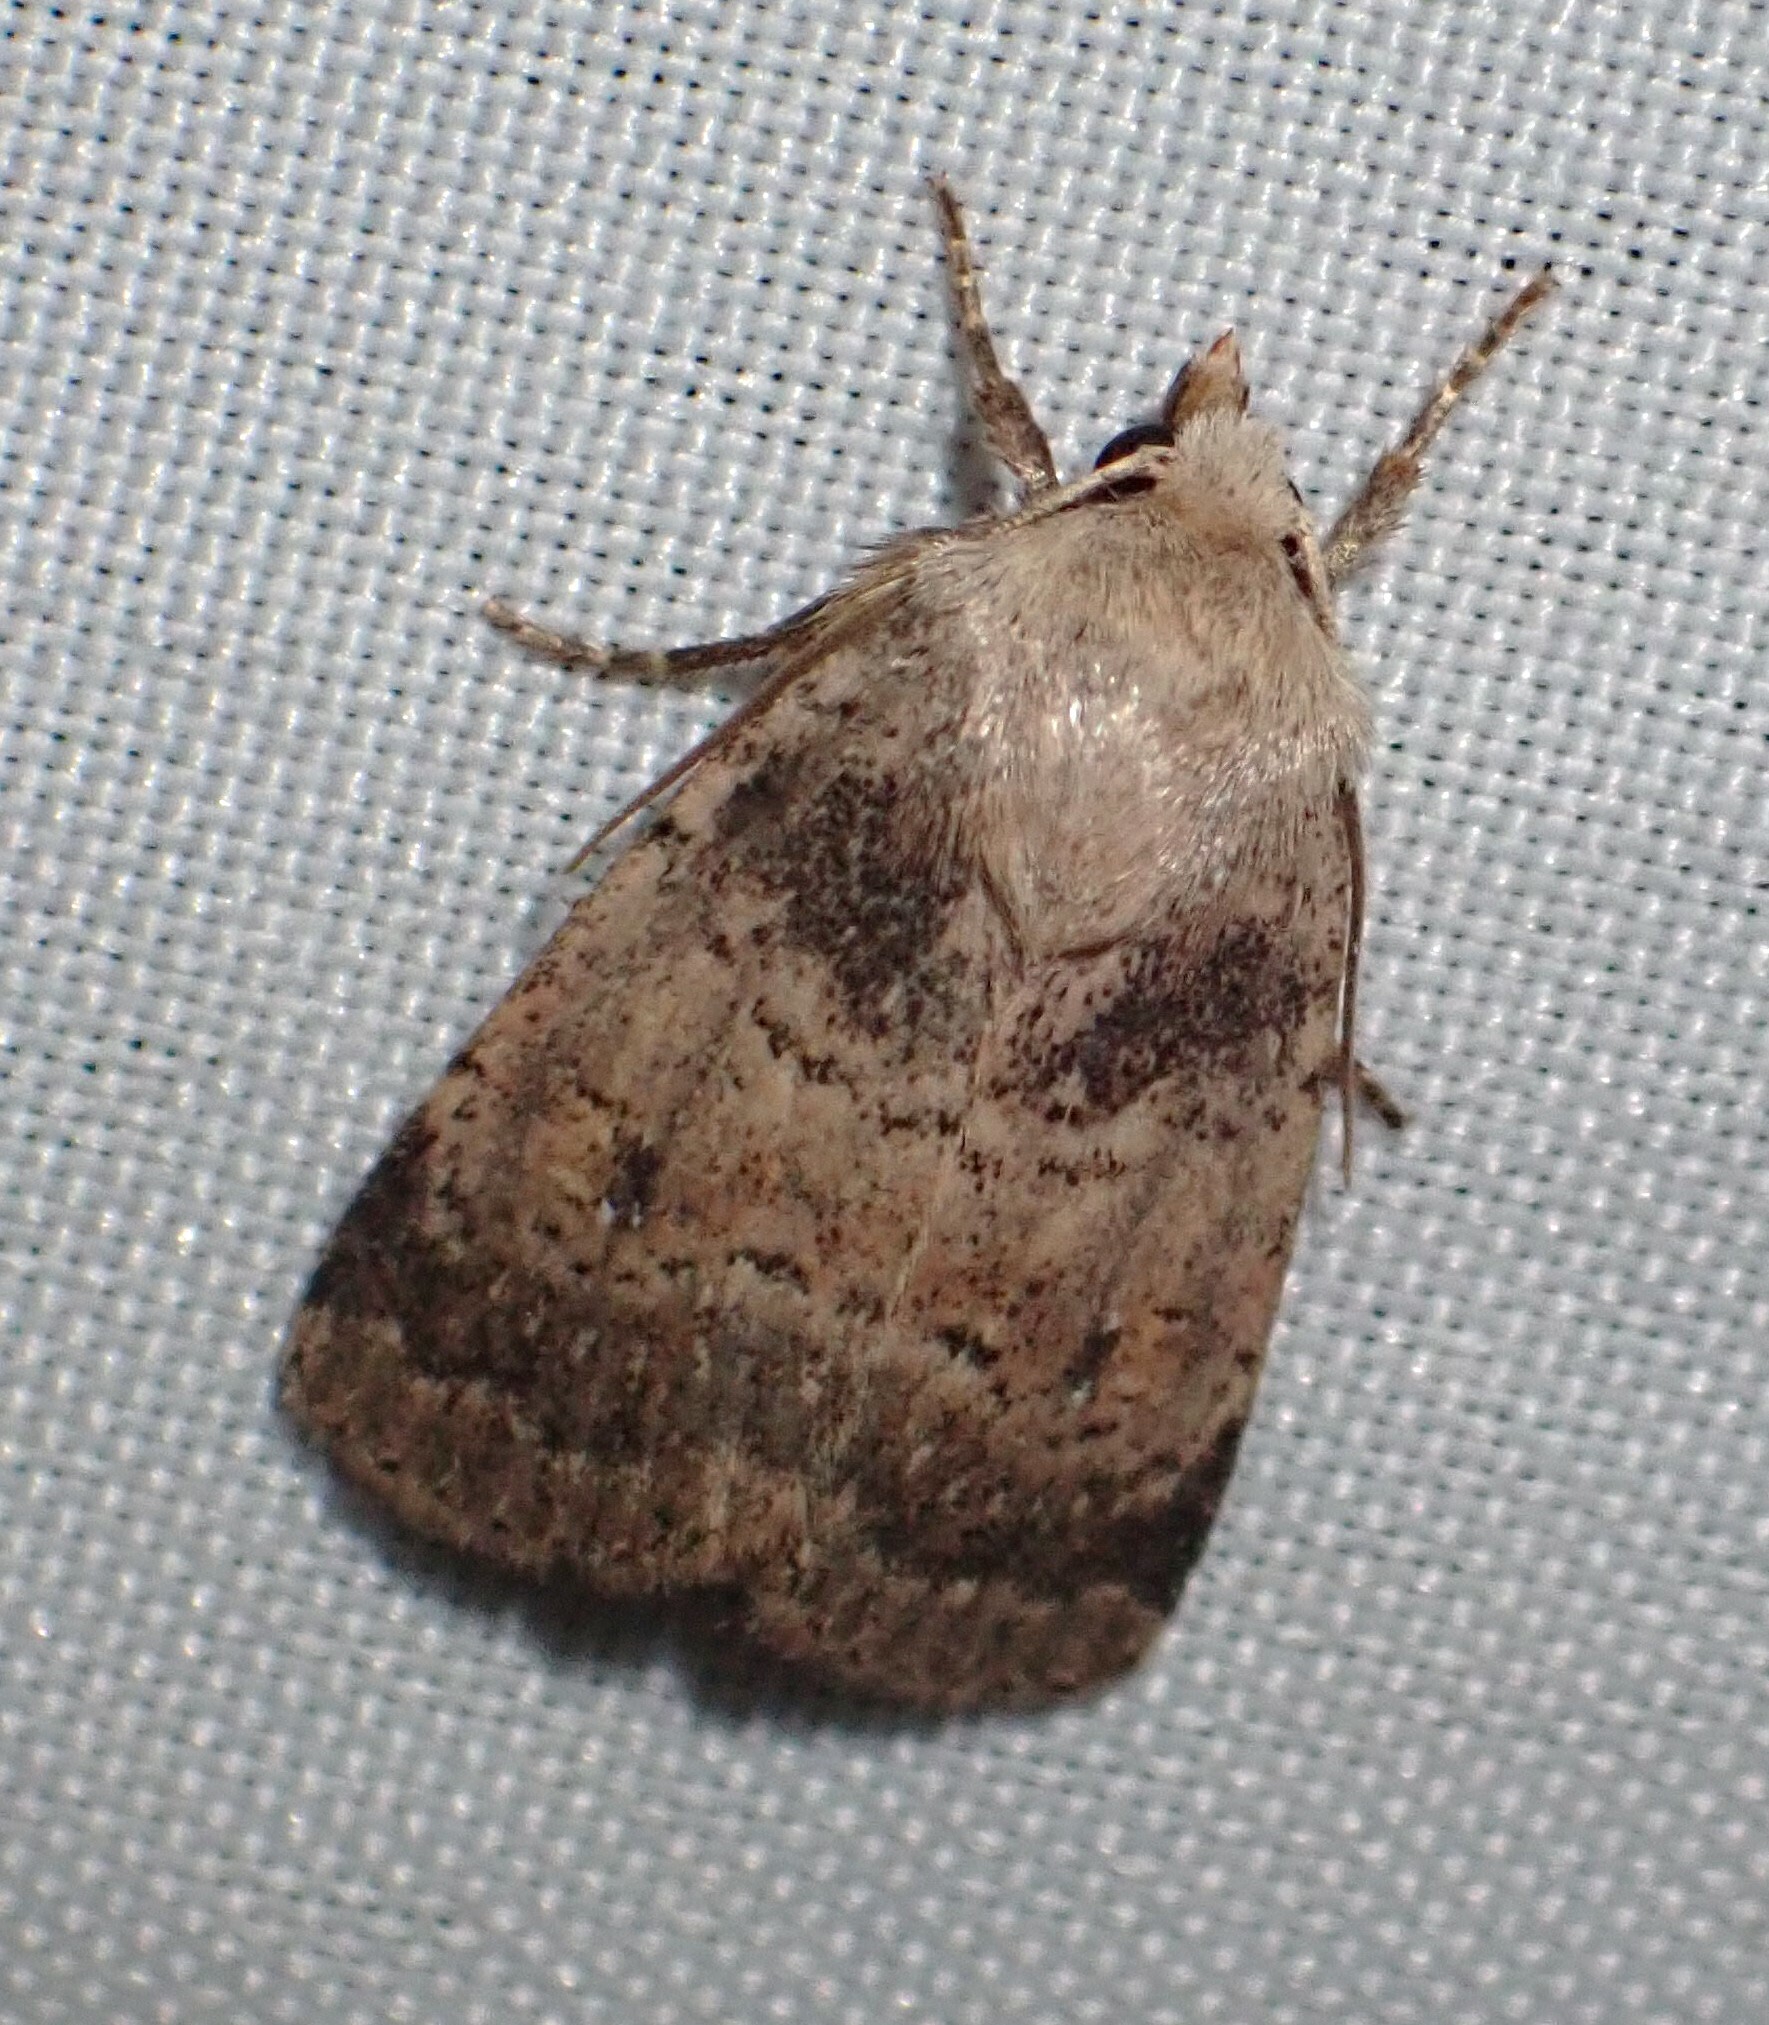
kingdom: Animalia
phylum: Arthropoda
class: Insecta
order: Lepidoptera
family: Noctuidae
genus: Homorthodes
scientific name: Homorthodes fractura
